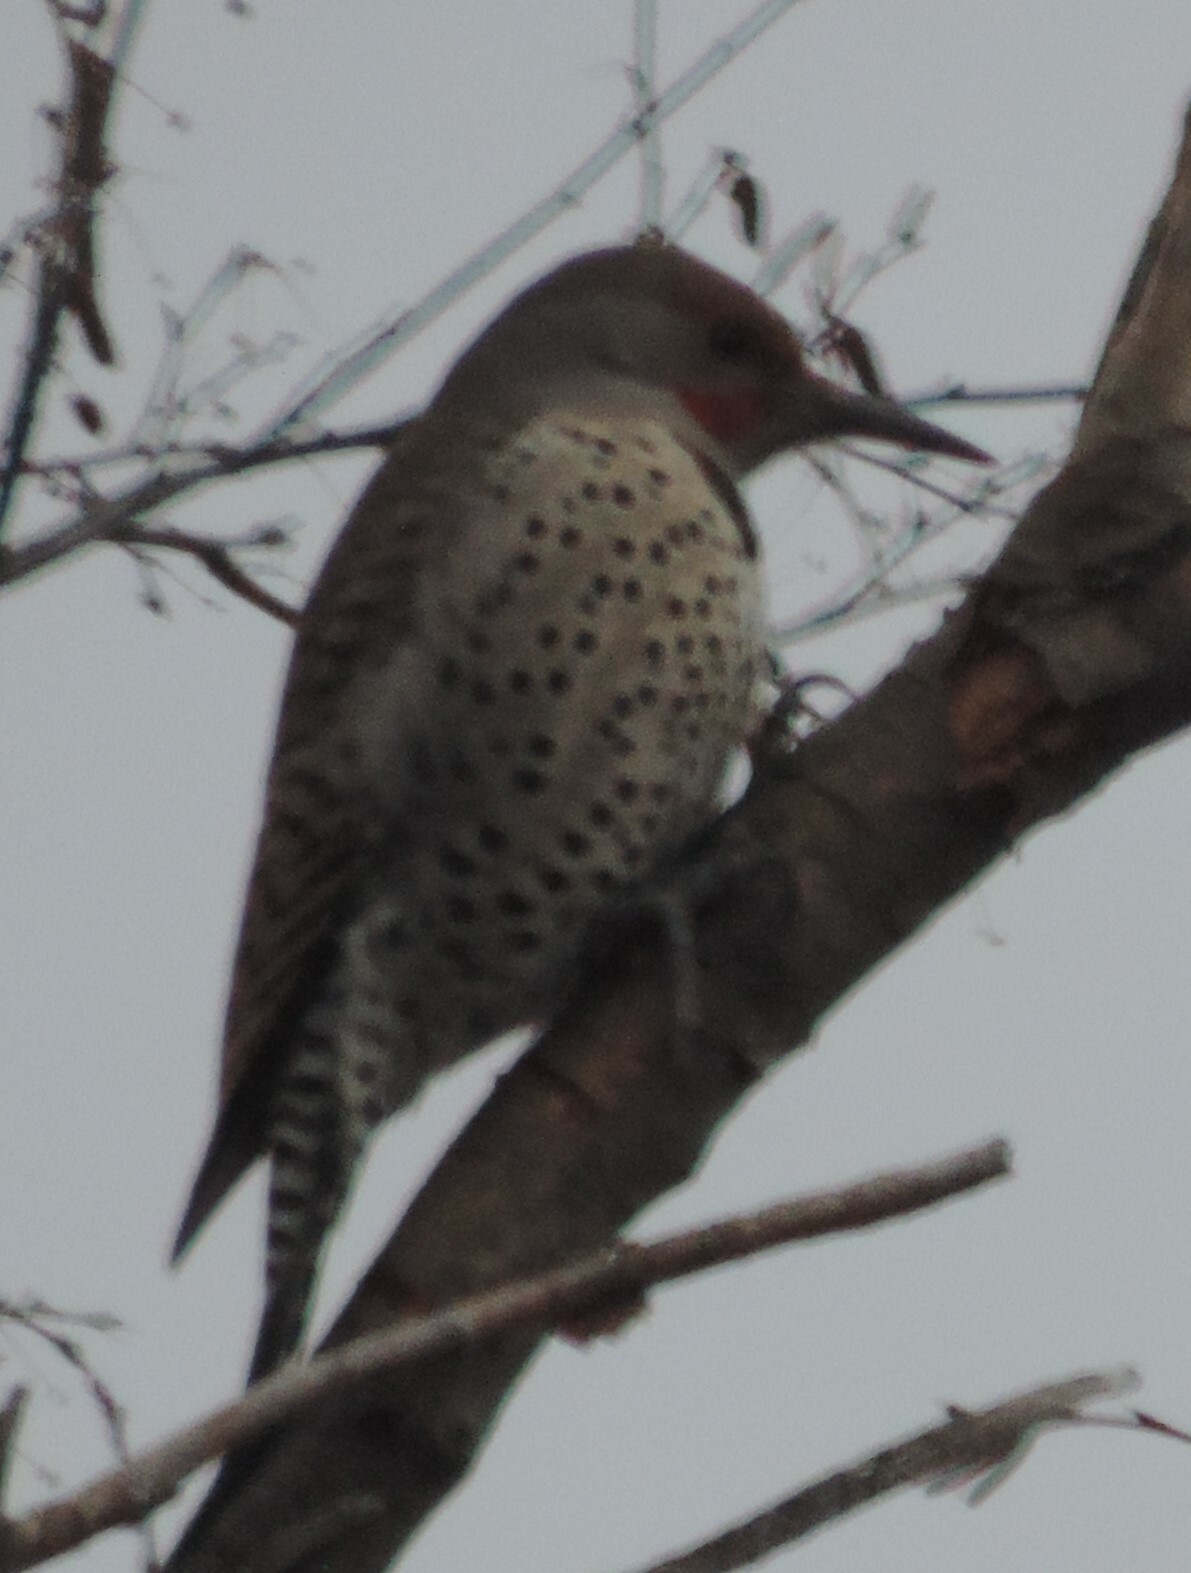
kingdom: Animalia
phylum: Chordata
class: Aves
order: Piciformes
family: Picidae
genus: Colaptes
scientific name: Colaptes auratus
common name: Northern flicker
